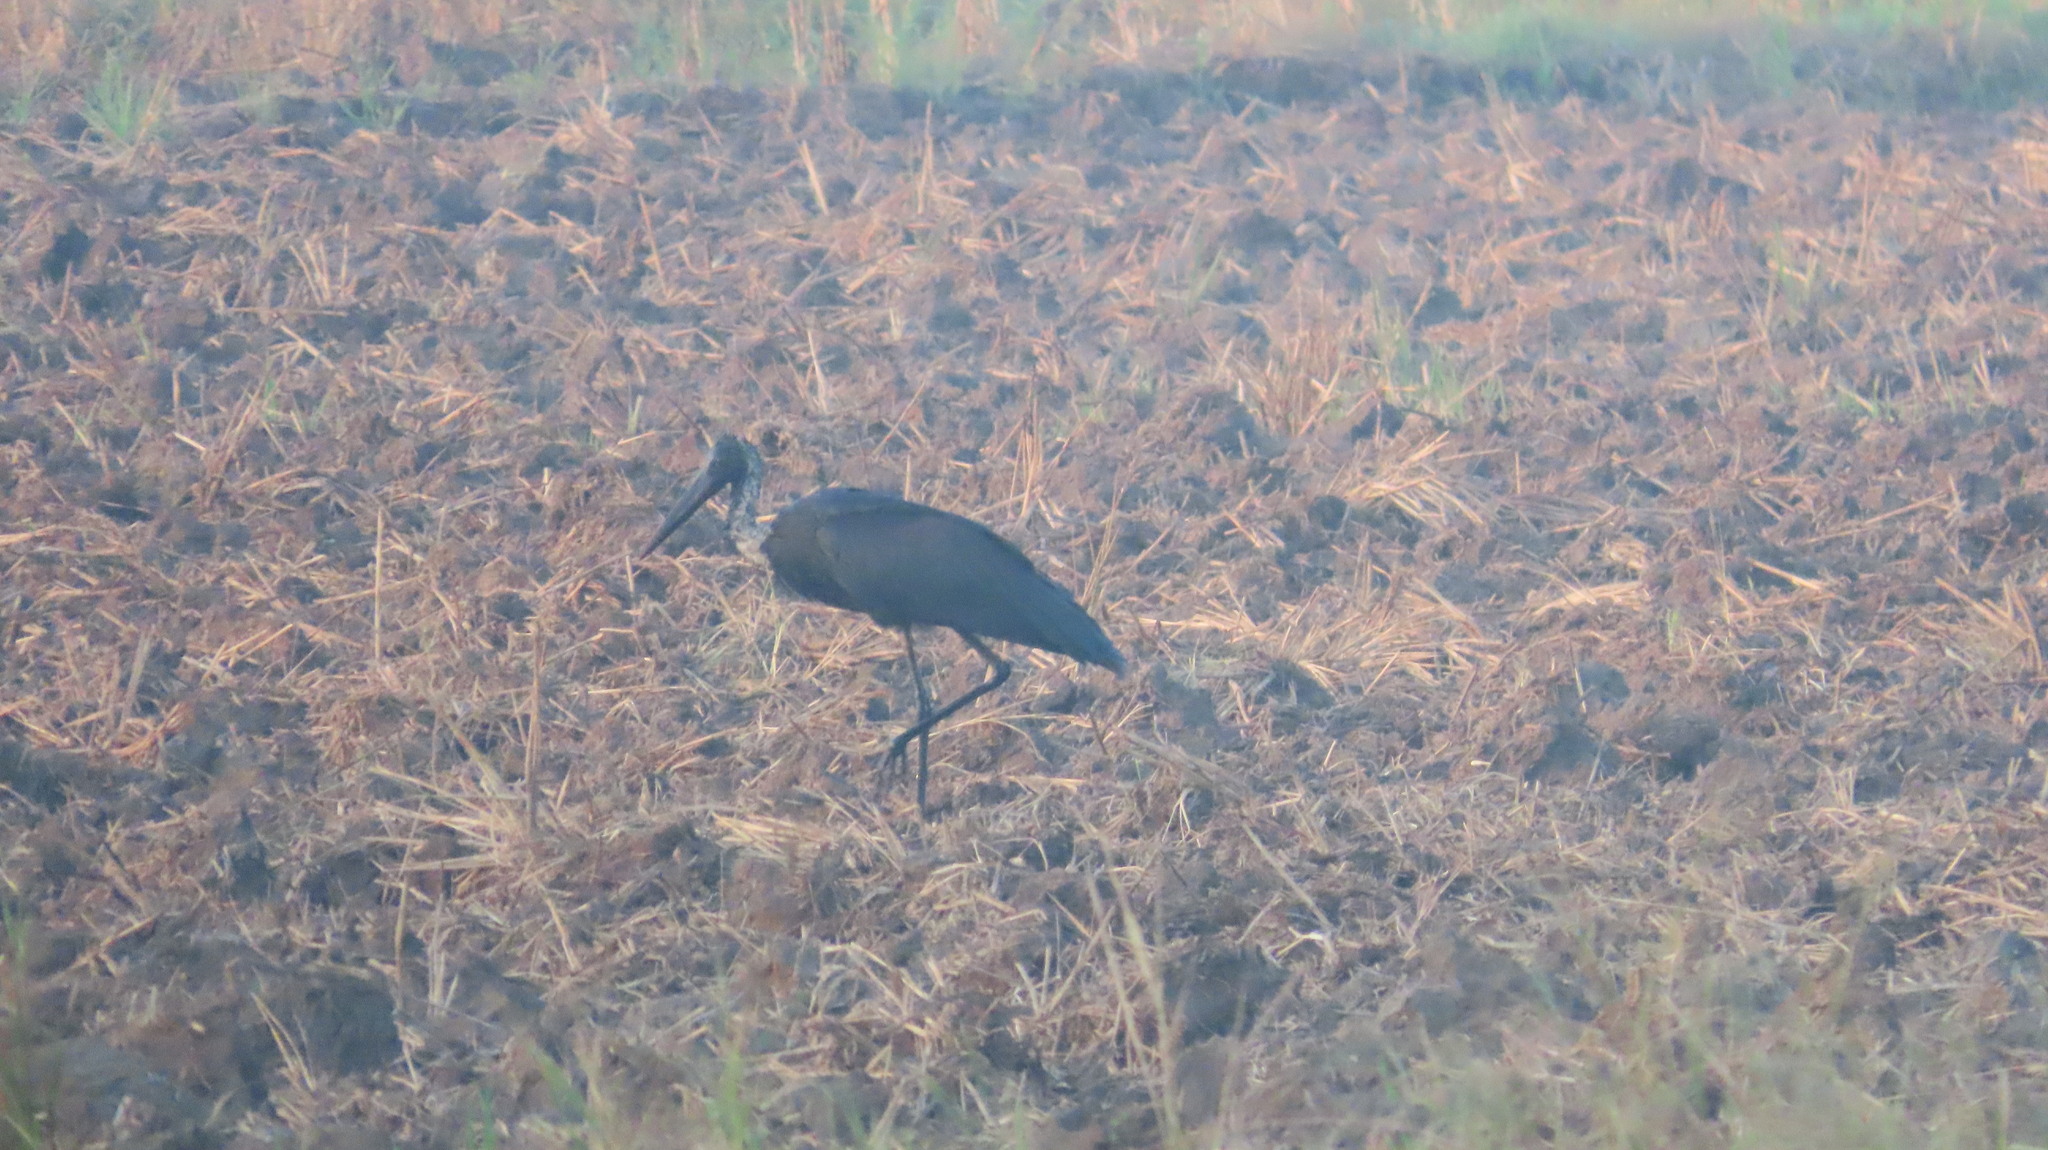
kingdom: Animalia
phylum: Chordata
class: Aves
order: Ciconiiformes
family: Ciconiidae
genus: Ciconia
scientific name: Ciconia episcopus
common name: Woolly-necked stork
